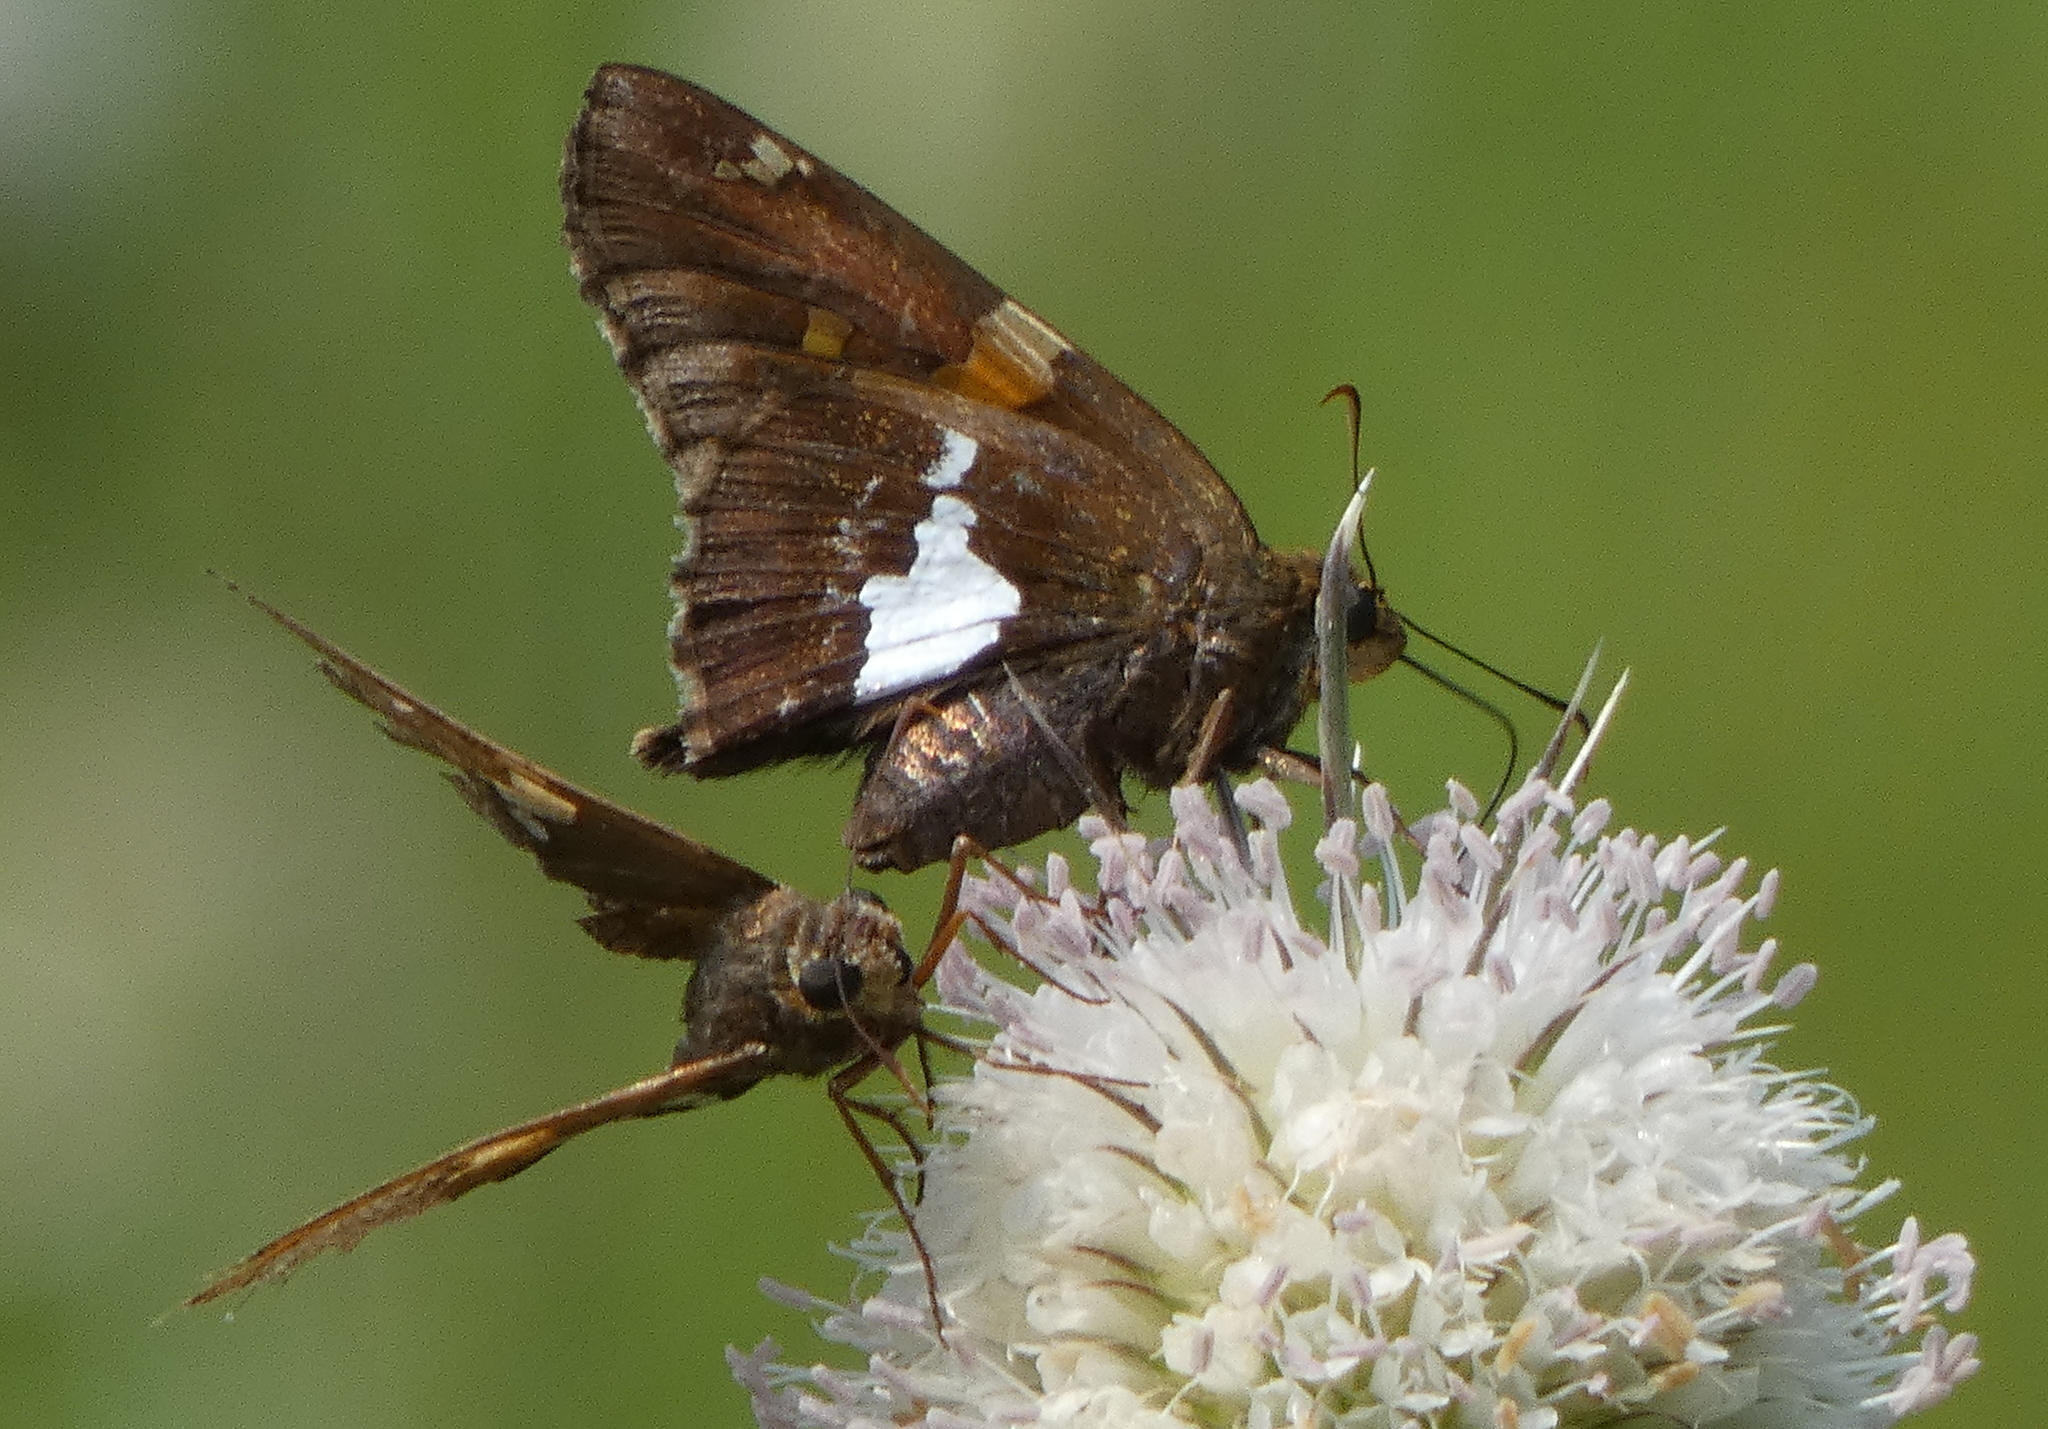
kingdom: Animalia
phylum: Arthropoda
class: Insecta
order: Lepidoptera
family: Hesperiidae
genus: Epargyreus
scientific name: Epargyreus clarus
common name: Silver-spotted skipper
